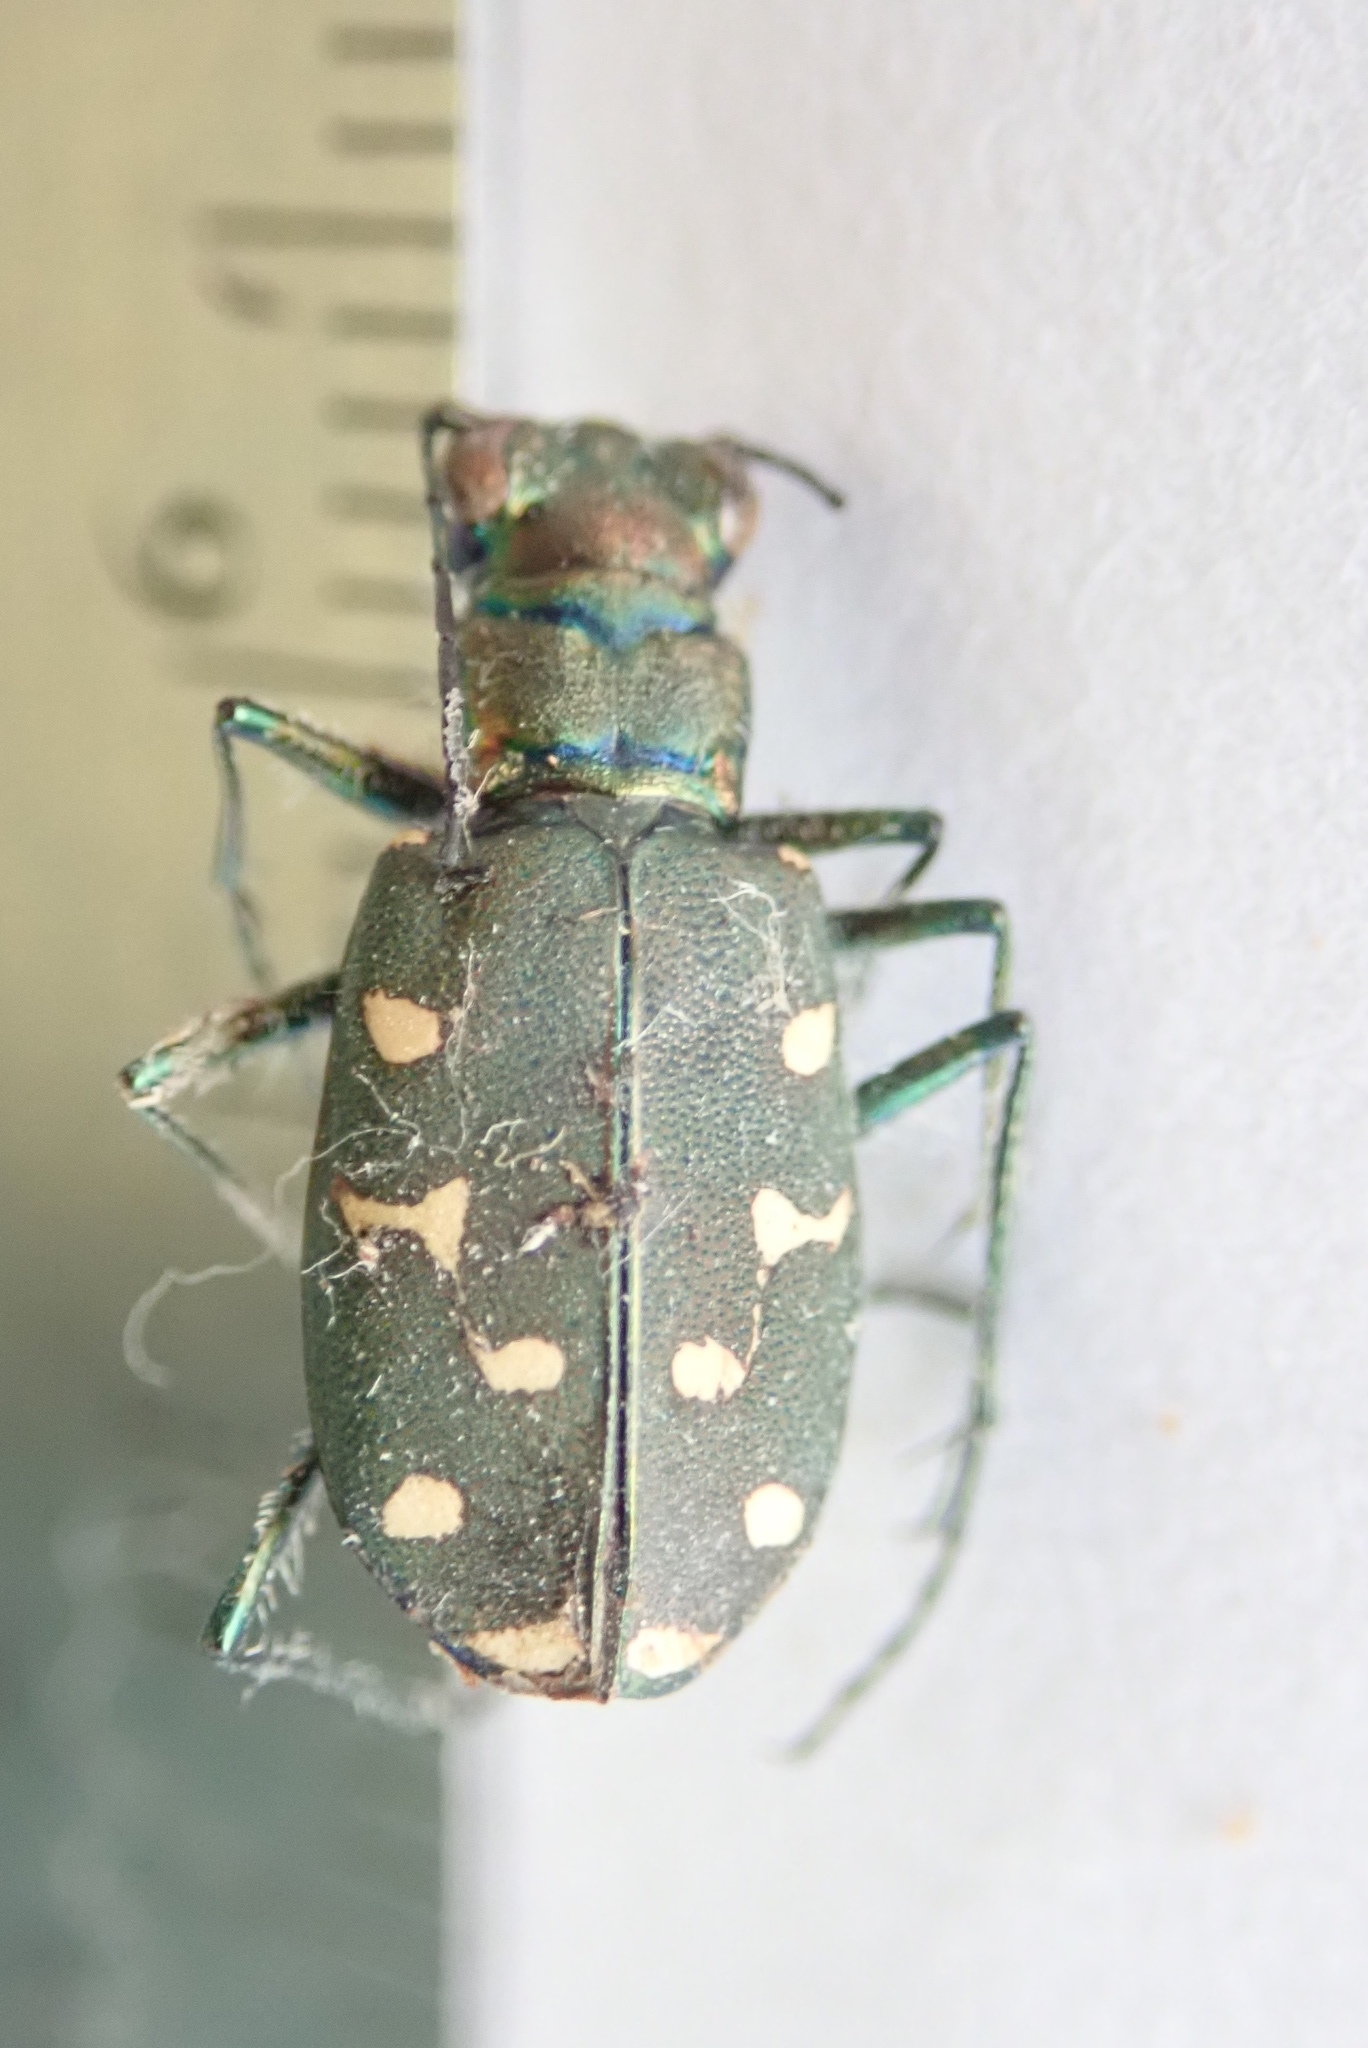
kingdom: Animalia
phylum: Arthropoda
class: Insecta
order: Coleoptera
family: Carabidae
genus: Cicindela
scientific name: Cicindela oregona
